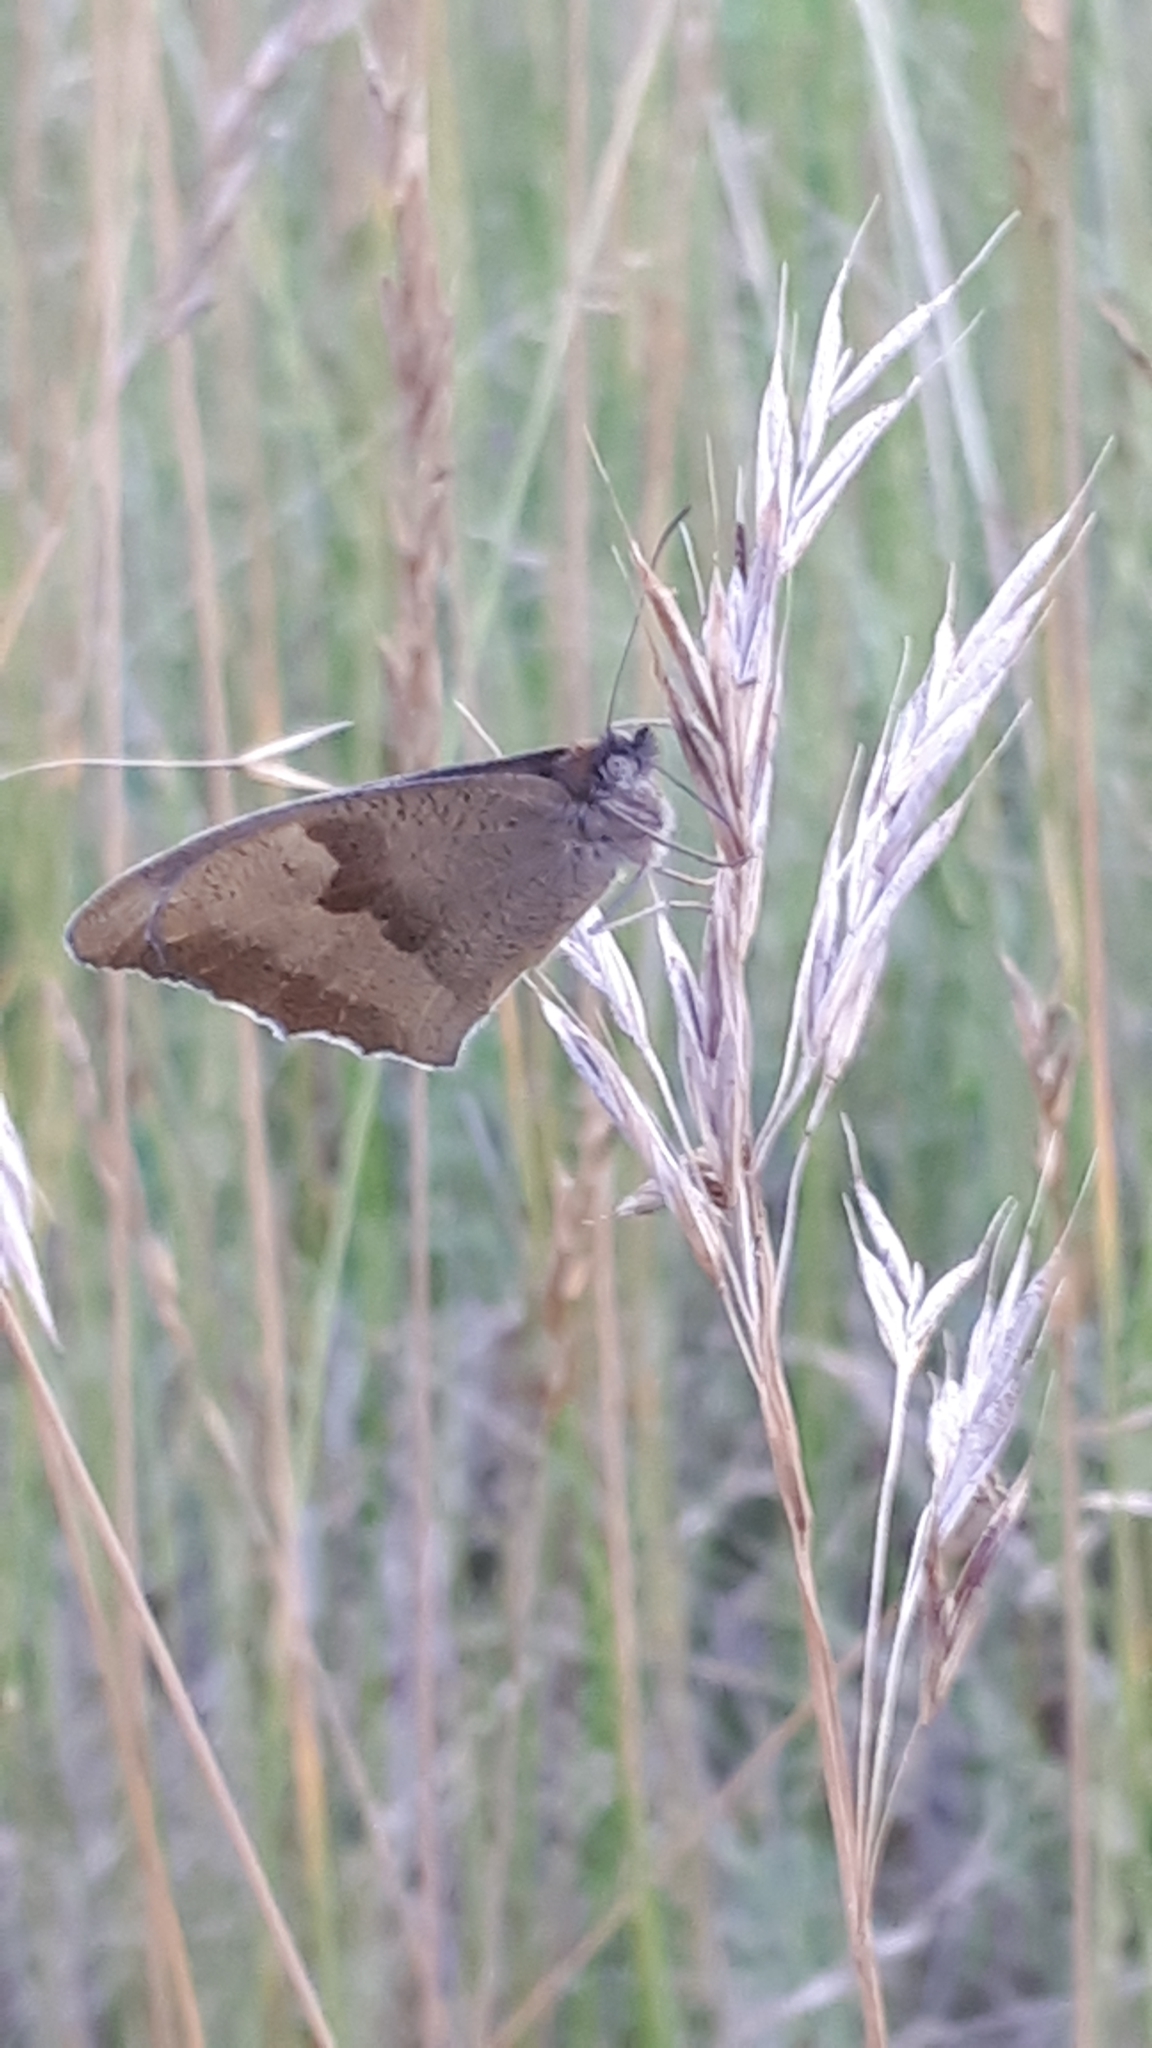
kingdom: Animalia
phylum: Arthropoda
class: Insecta
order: Lepidoptera
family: Nymphalidae
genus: Maniola
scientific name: Maniola jurtina
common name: Meadow brown
